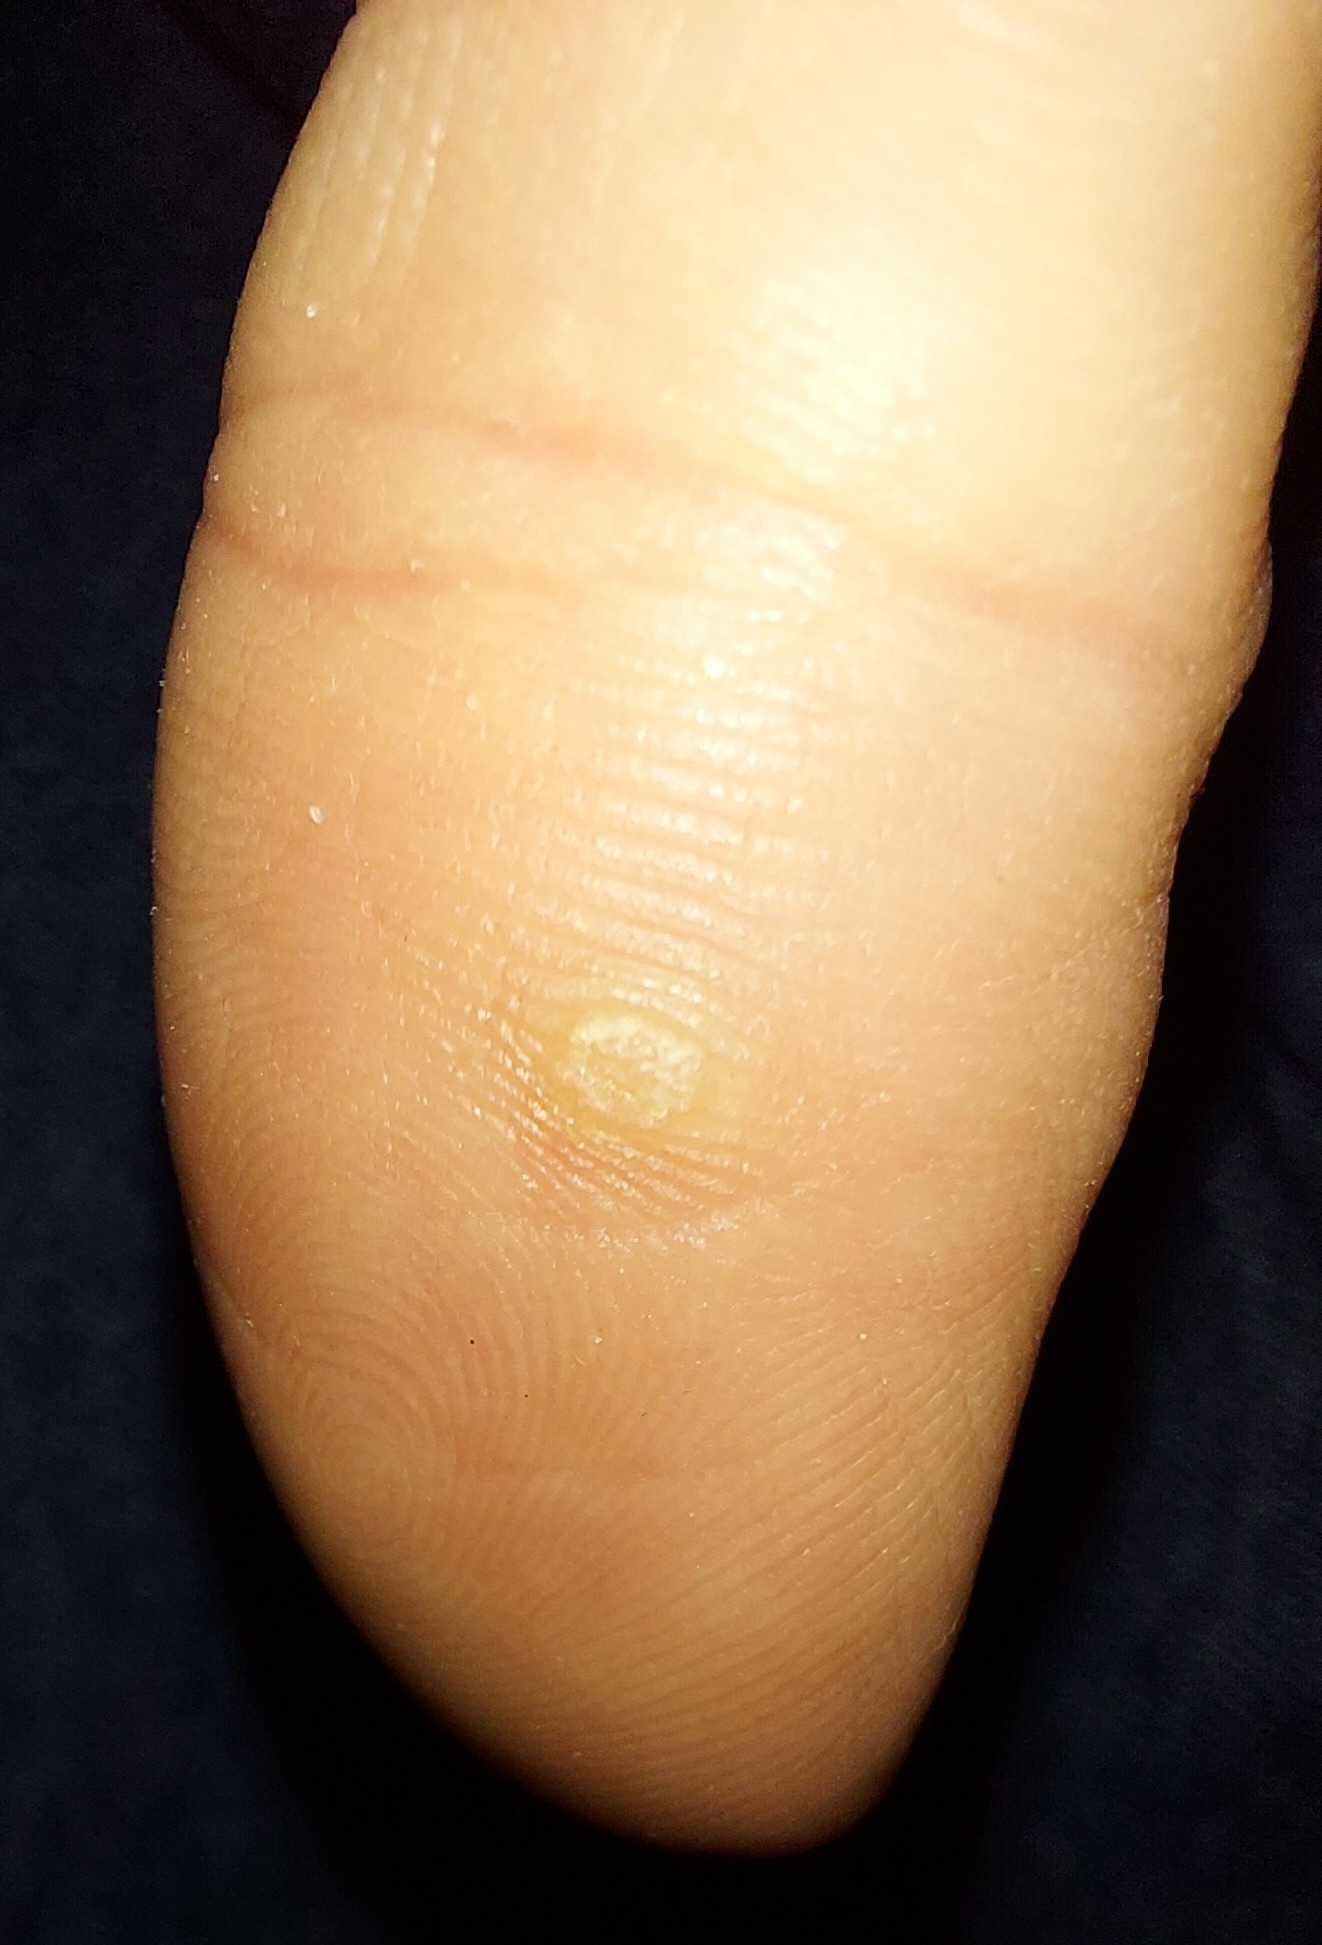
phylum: Cossaviricota
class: Papovaviricetes
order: Zurhausenvirales
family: Papillomaviridae
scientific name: Papillomaviridae
